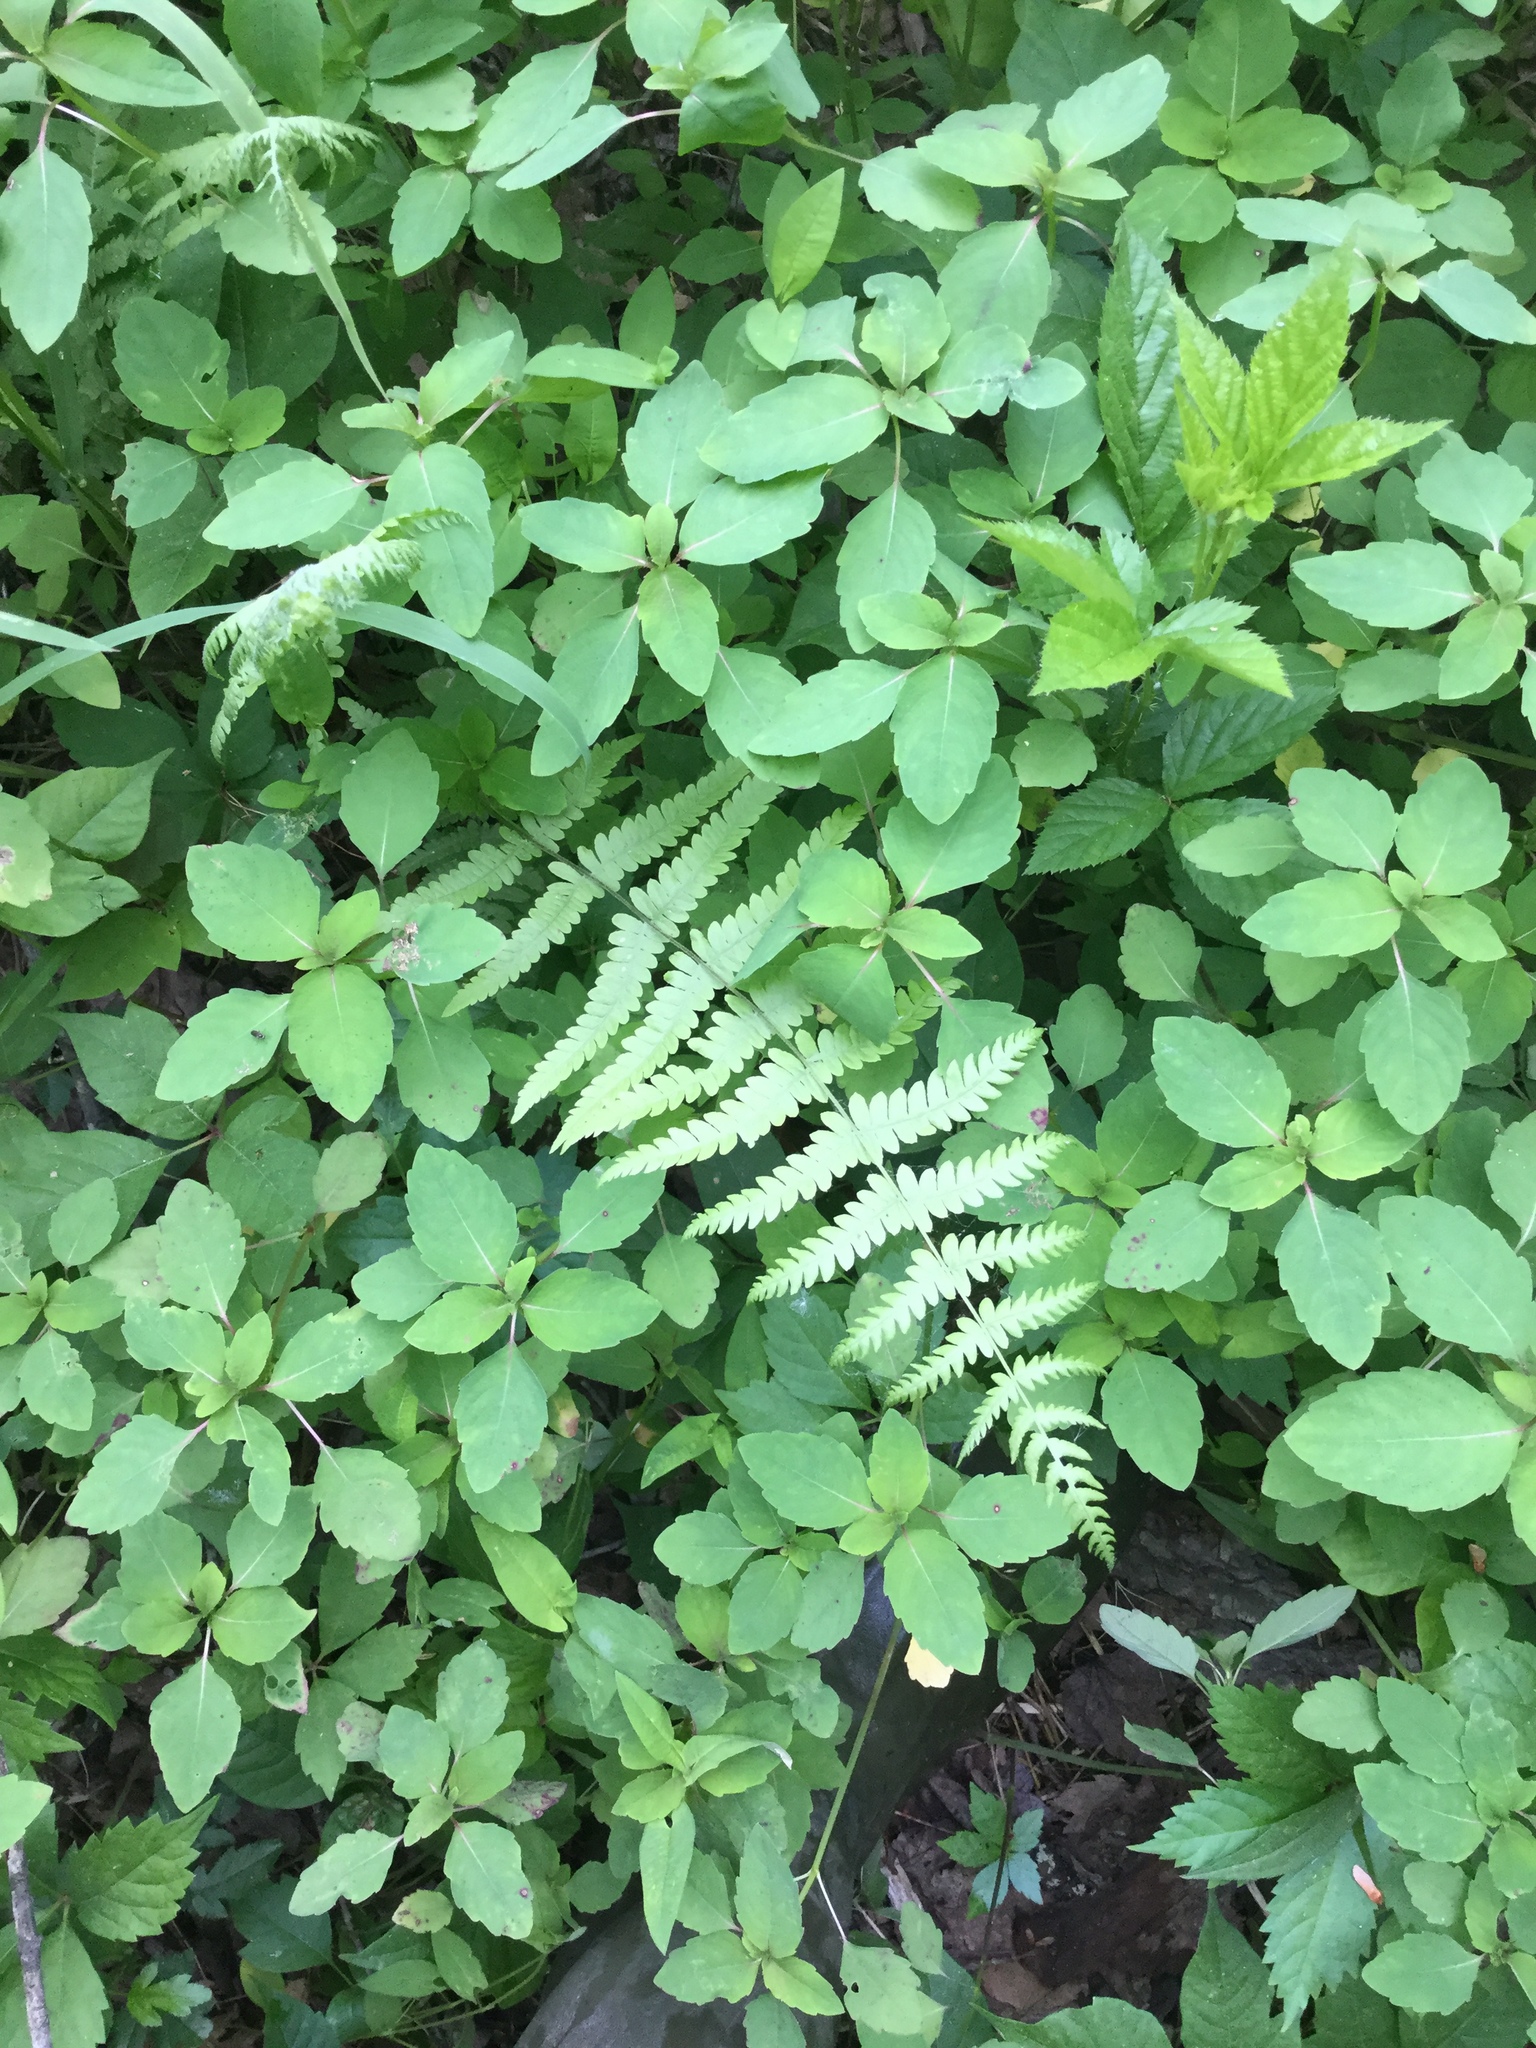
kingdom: Plantae
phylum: Tracheophyta
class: Polypodiopsida
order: Polypodiales
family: Thelypteridaceae
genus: Thelypteris
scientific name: Thelypteris palustris
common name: Marsh fern
